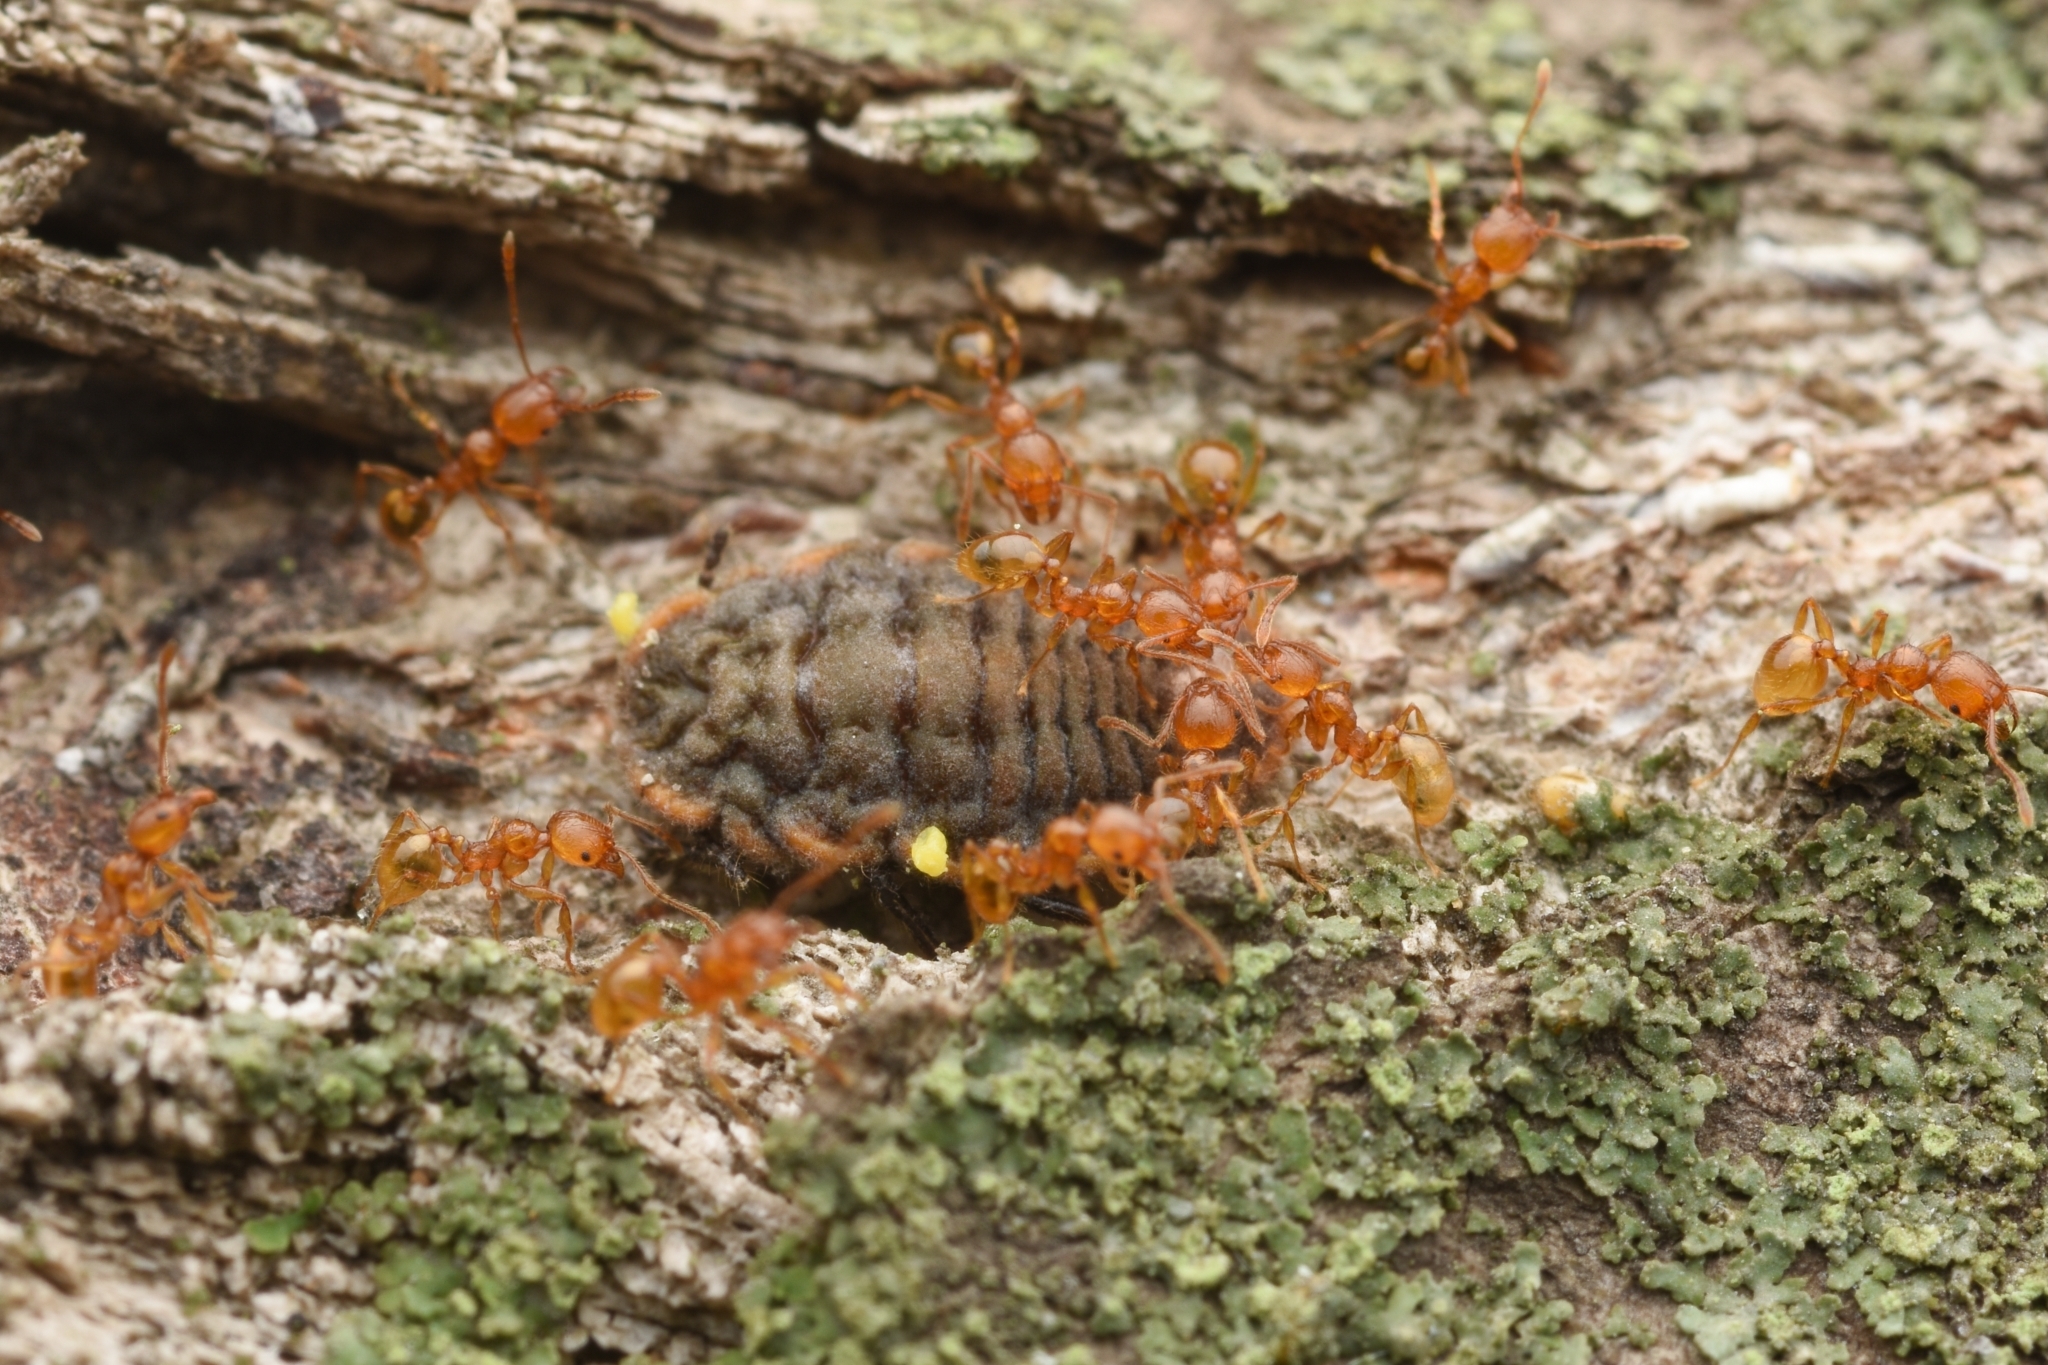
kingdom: Animalia
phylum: Arthropoda
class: Insecta
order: Hymenoptera
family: Formicidae
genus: Pheidole
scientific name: Pheidole fervida
